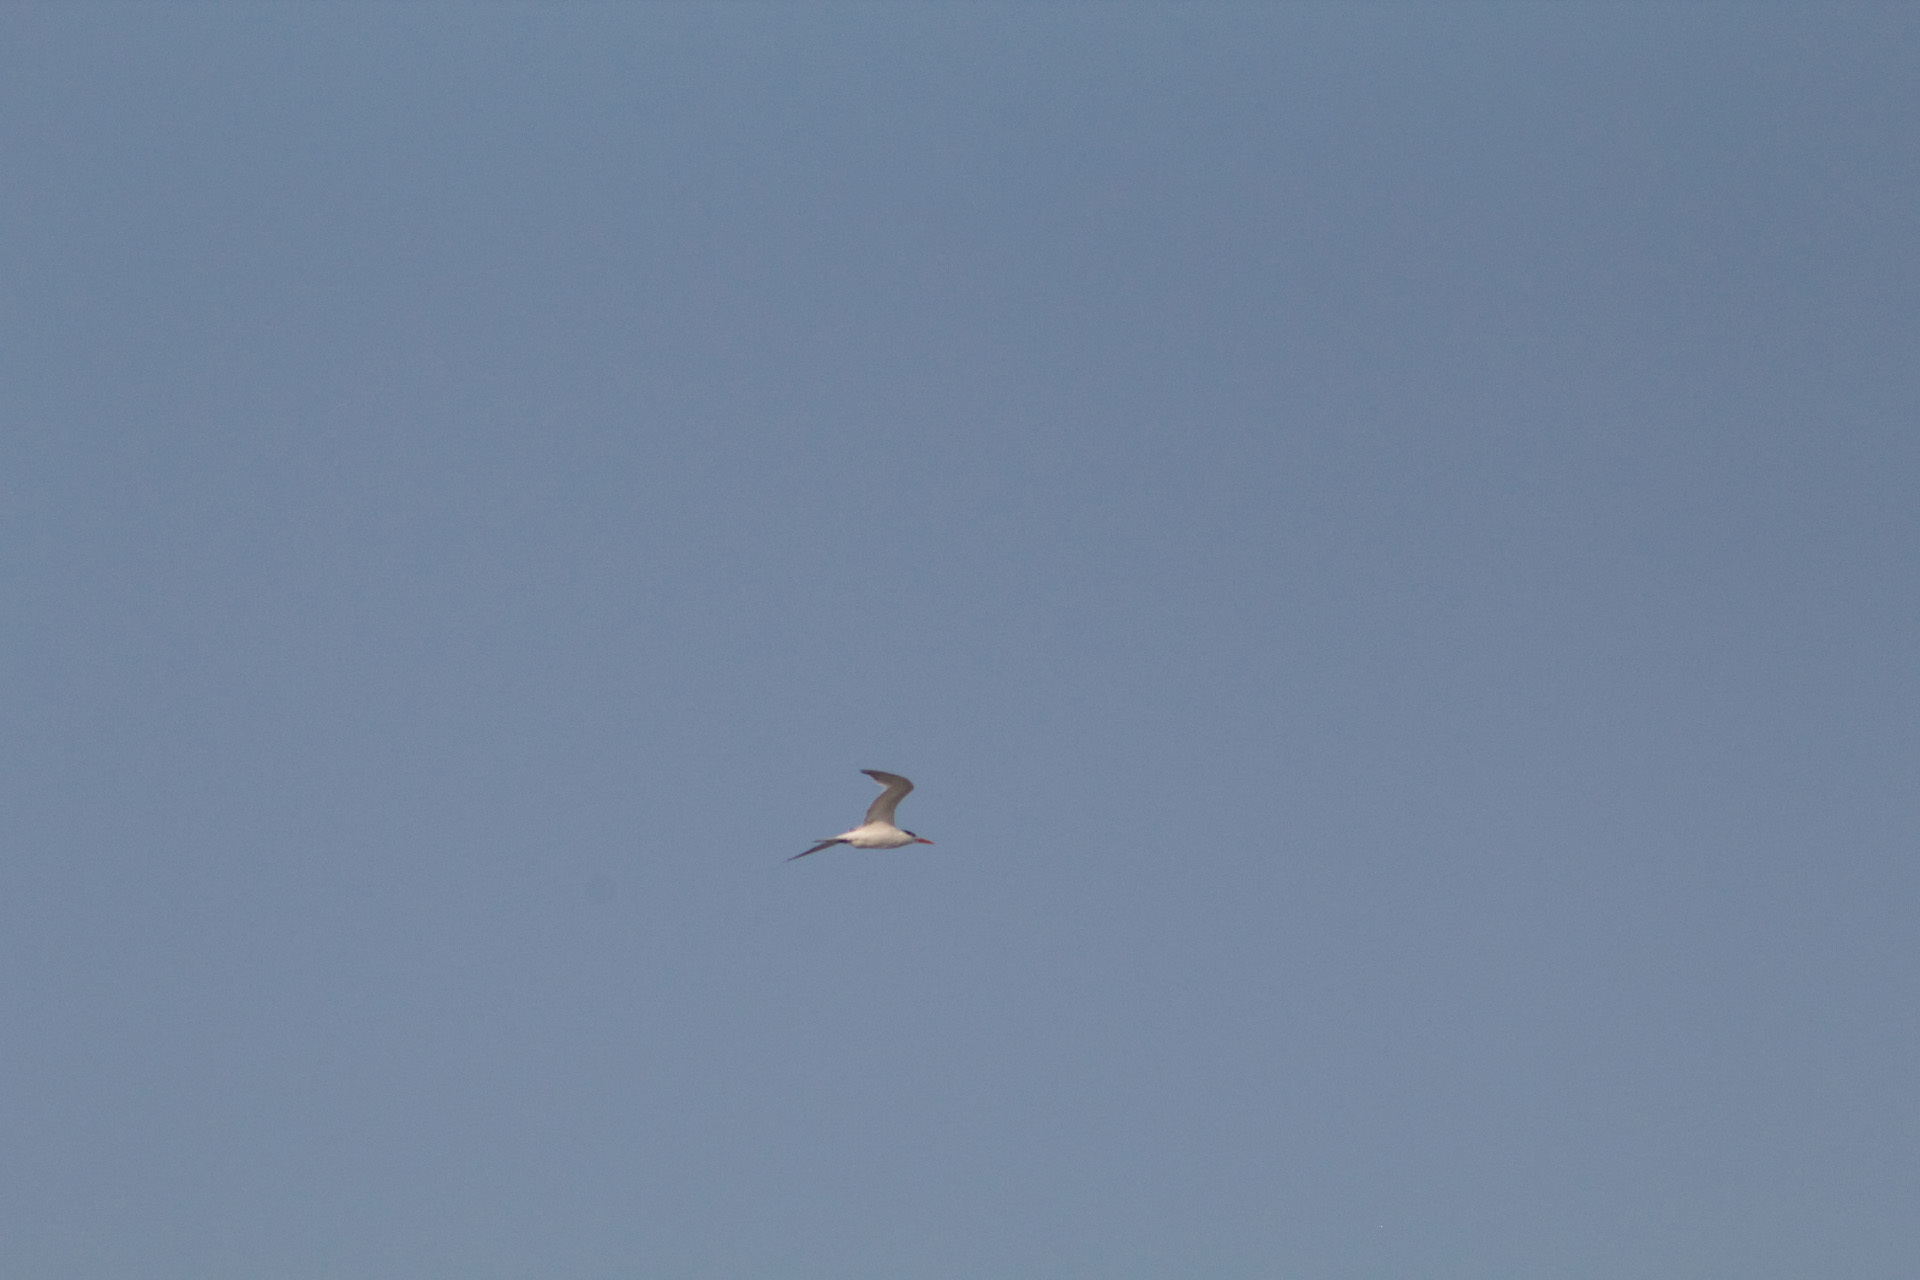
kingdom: Animalia
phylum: Chordata
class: Aves
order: Charadriiformes
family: Laridae
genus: Thalasseus
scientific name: Thalasseus maximus
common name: Royal tern
